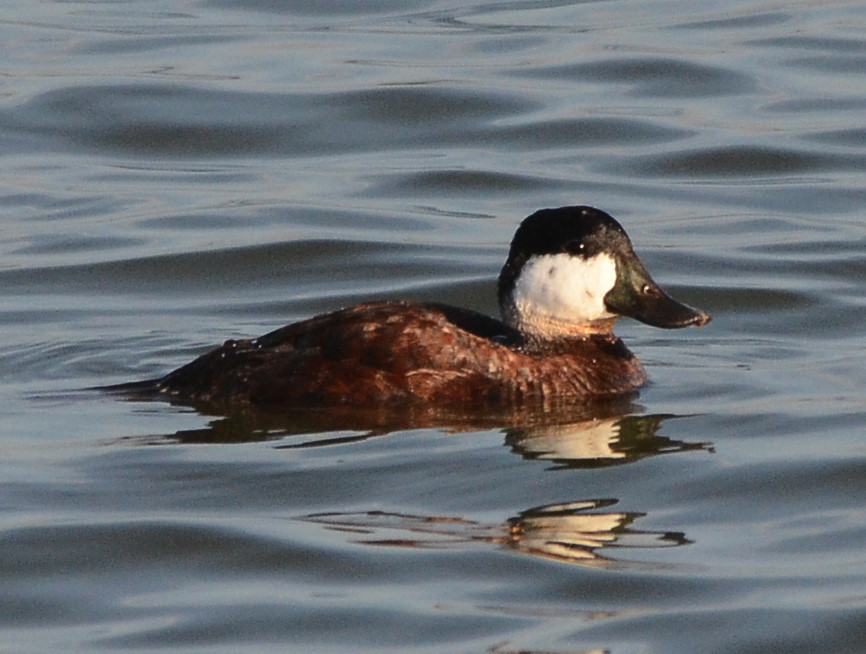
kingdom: Animalia
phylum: Chordata
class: Aves
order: Anseriformes
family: Anatidae
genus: Oxyura
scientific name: Oxyura jamaicensis
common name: Ruddy duck
